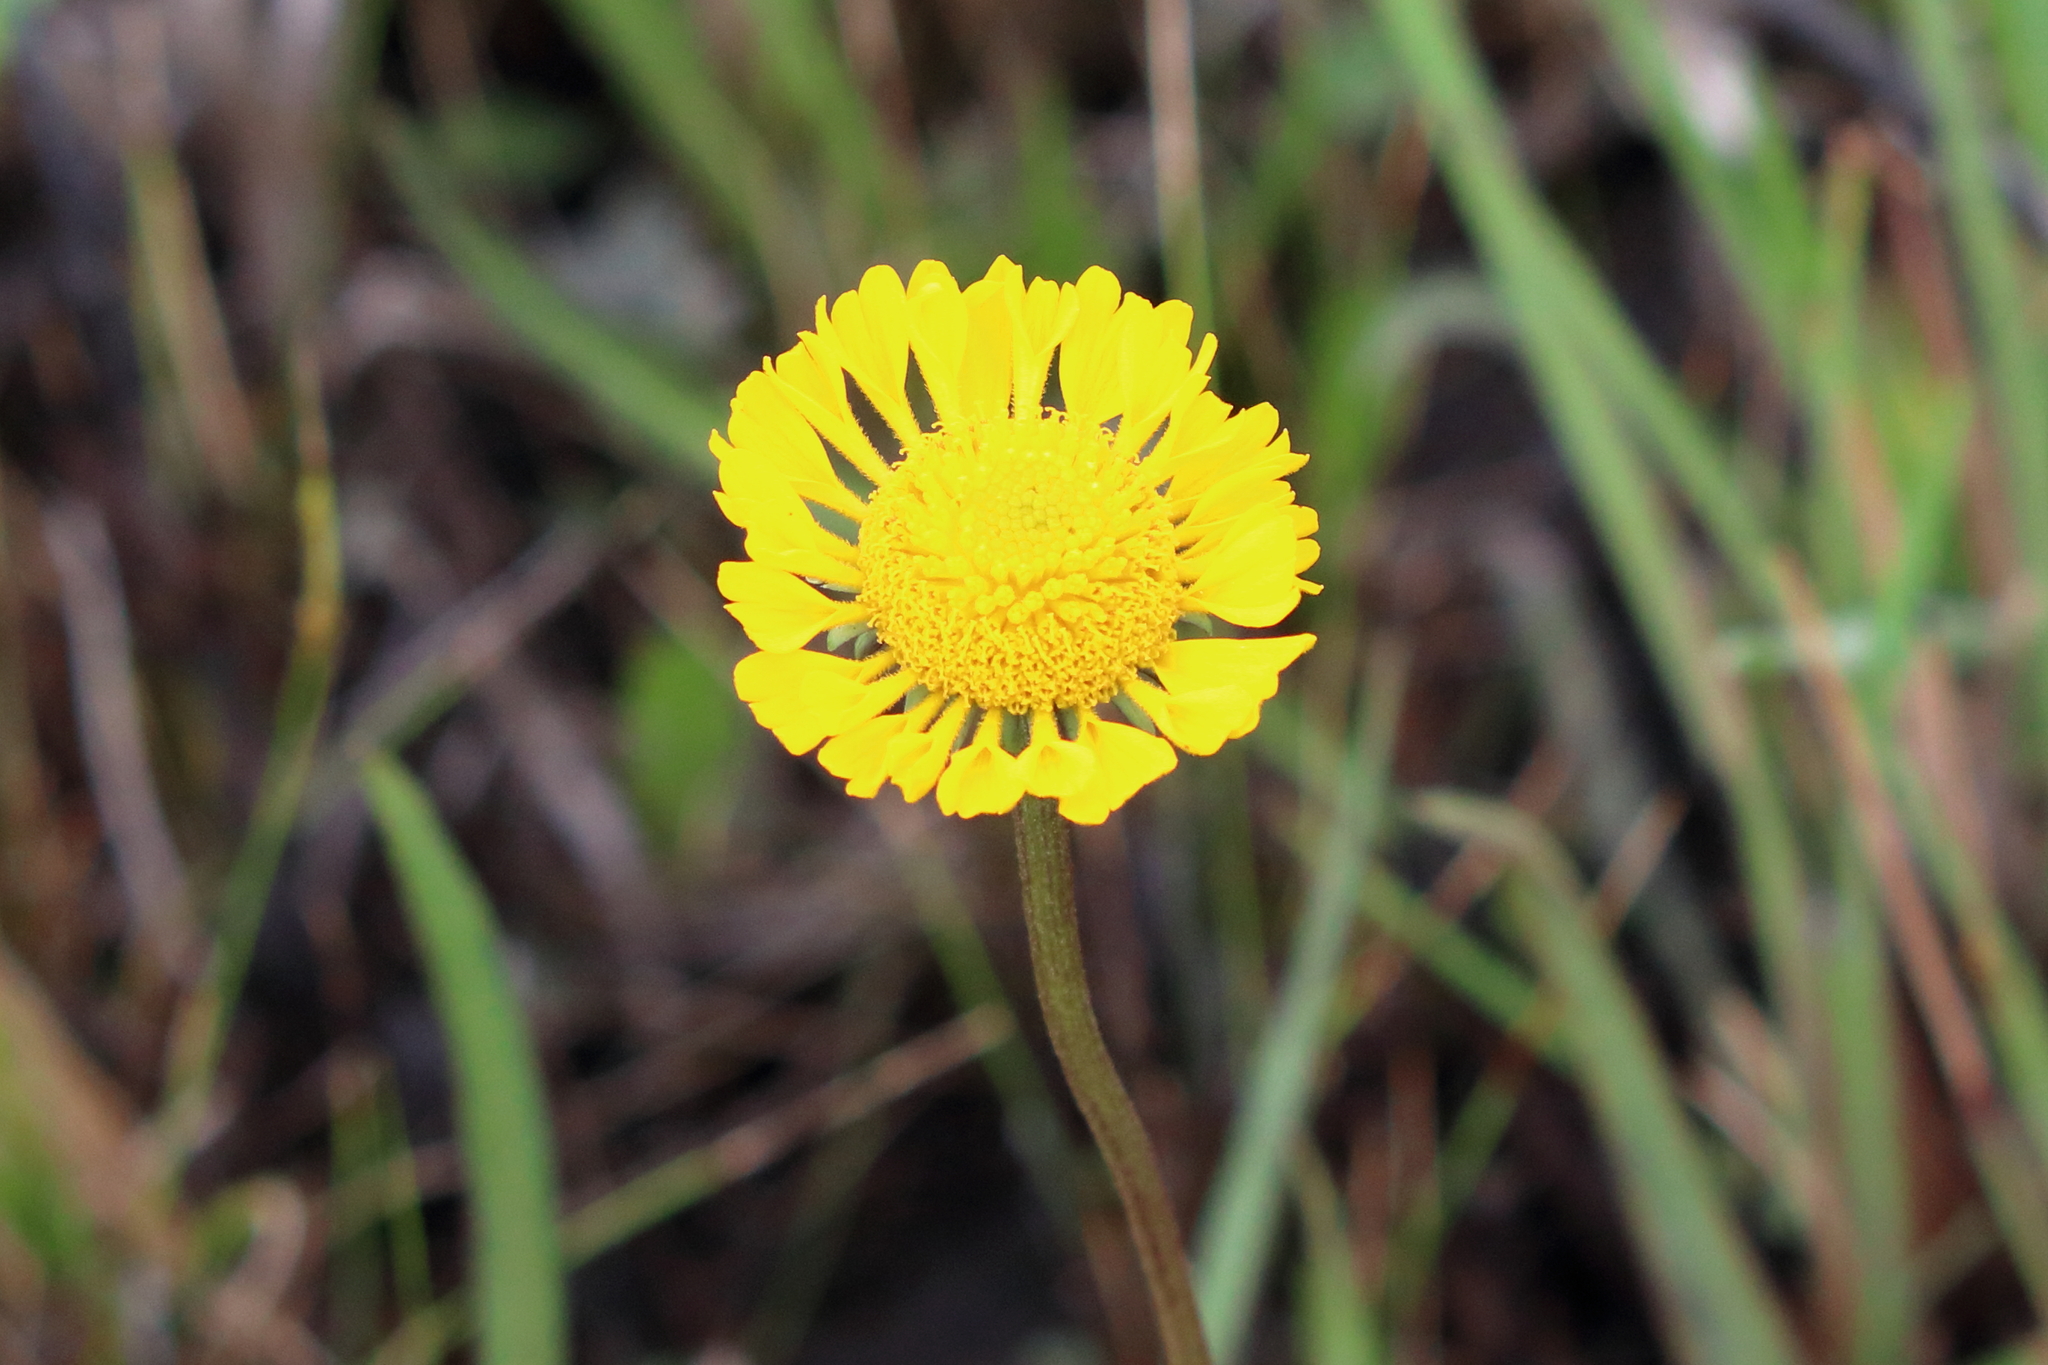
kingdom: Plantae
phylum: Tracheophyta
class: Magnoliopsida
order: Asterales
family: Asteraceae
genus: Helenium
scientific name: Helenium vernale
